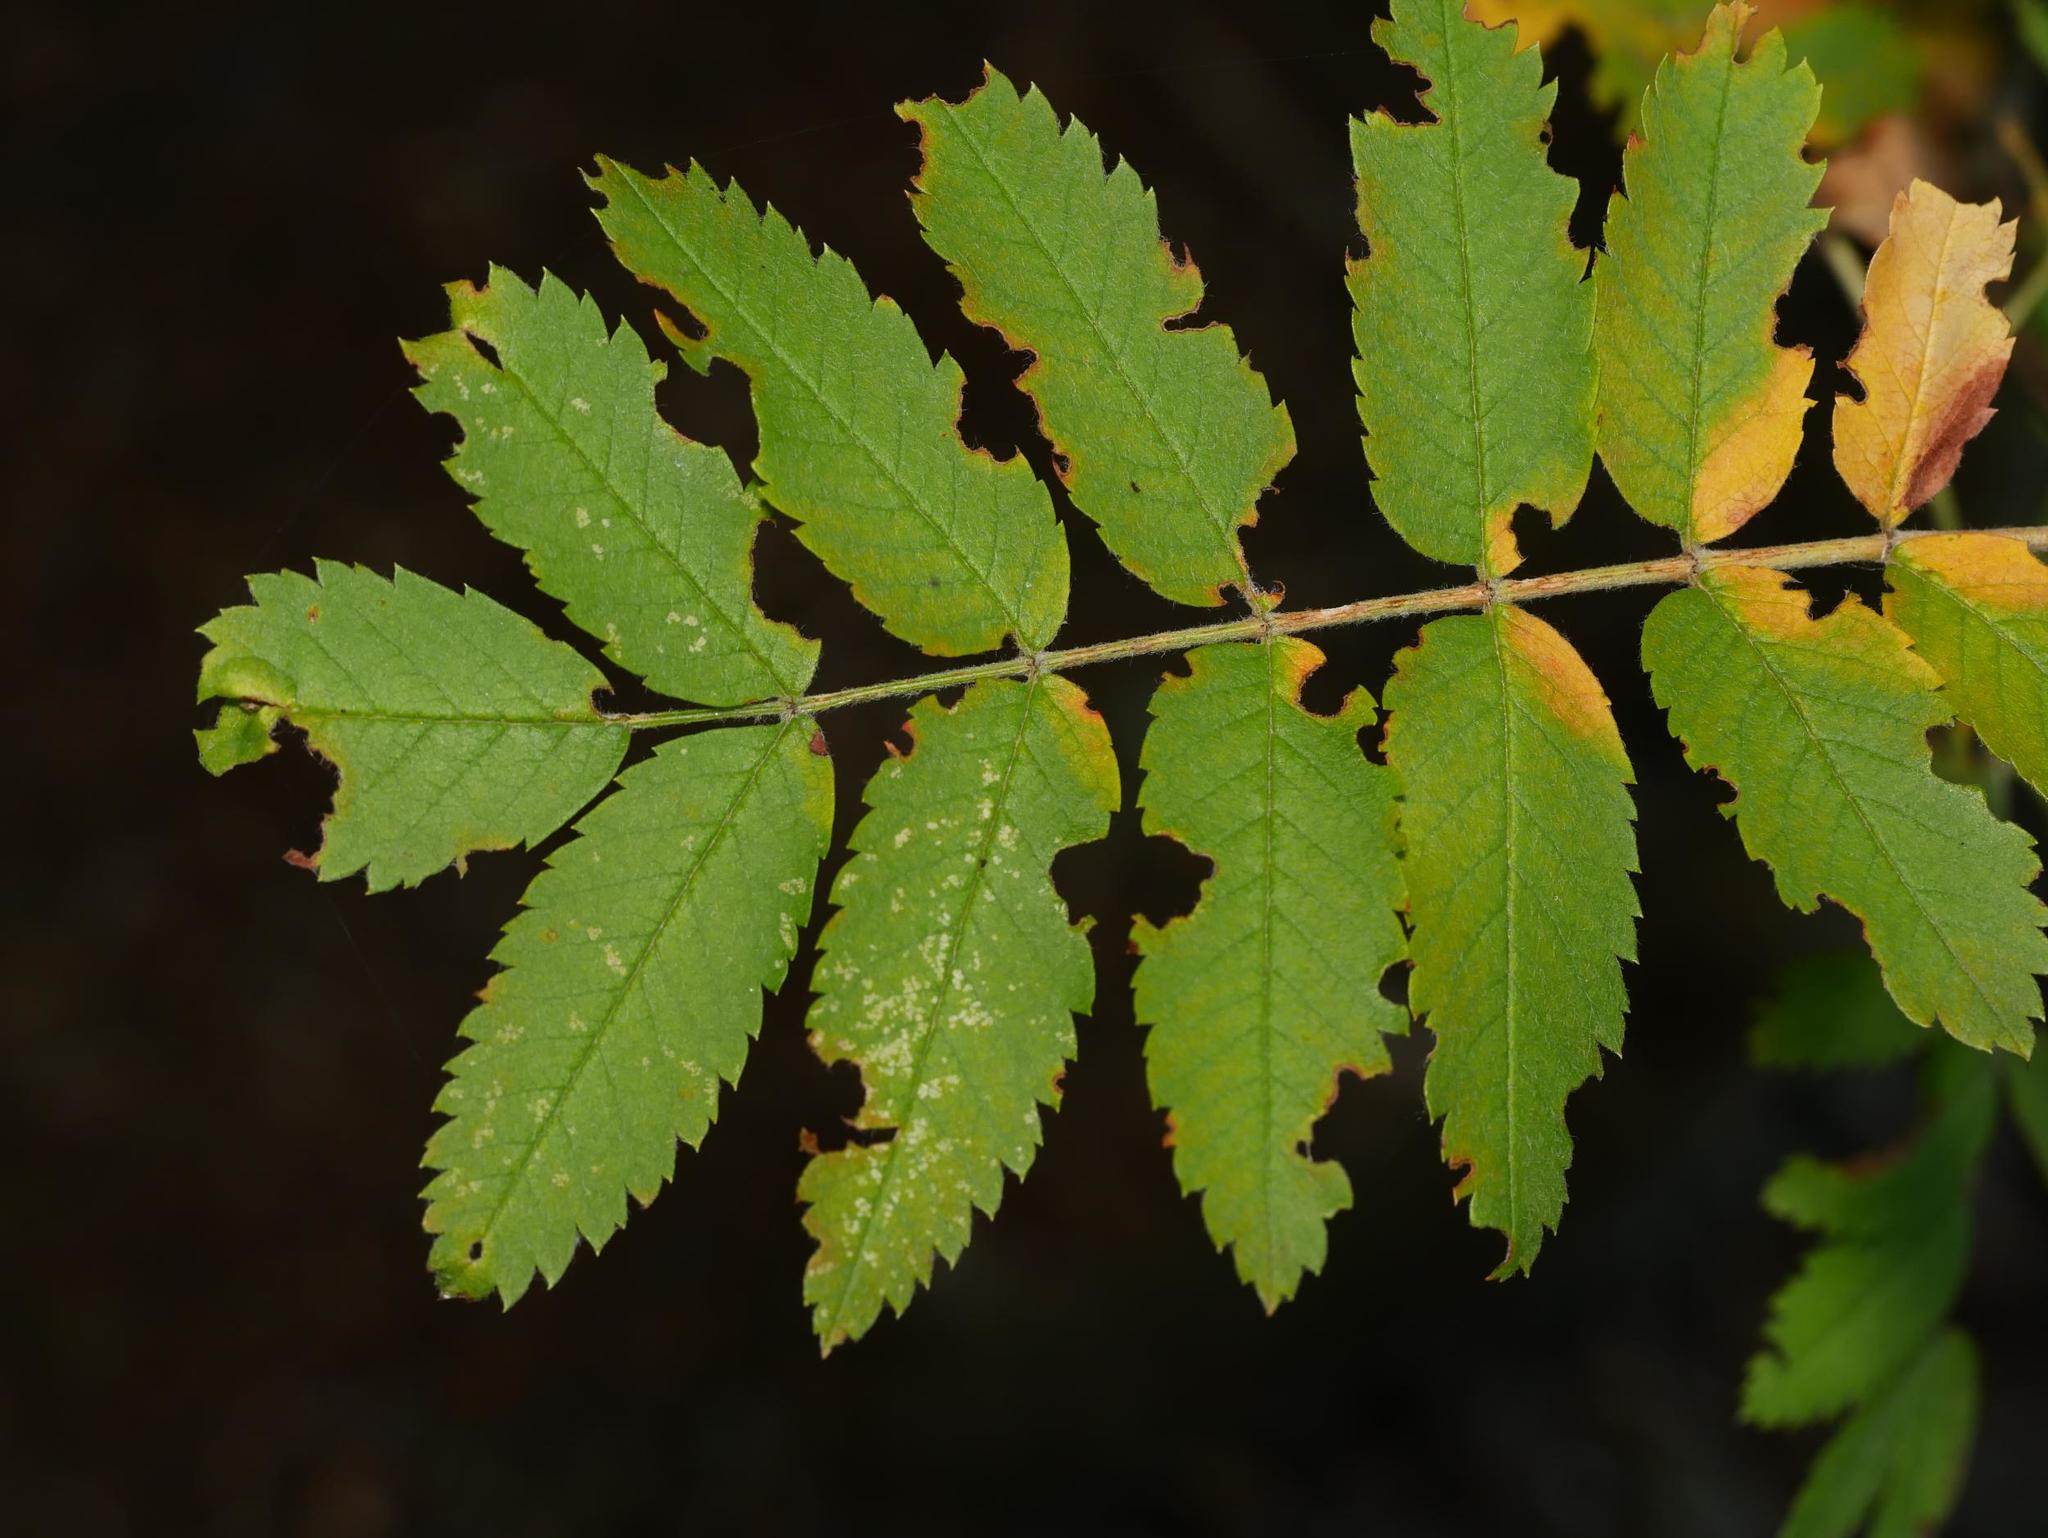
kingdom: Plantae
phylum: Tracheophyta
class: Magnoliopsida
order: Rosales
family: Rosaceae
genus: Sorbus
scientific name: Sorbus aucuparia
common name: Rowan
